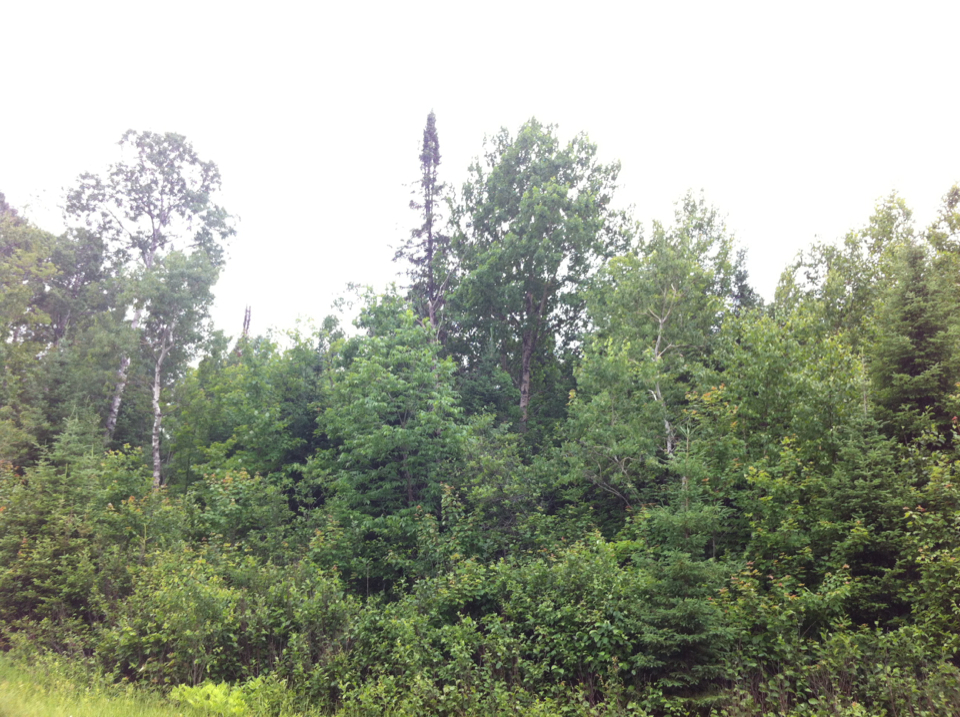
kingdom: Plantae
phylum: Tracheophyta
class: Pinopsida
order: Pinales
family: Pinaceae
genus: Abies
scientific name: Abies balsamea
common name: Balsam fir
